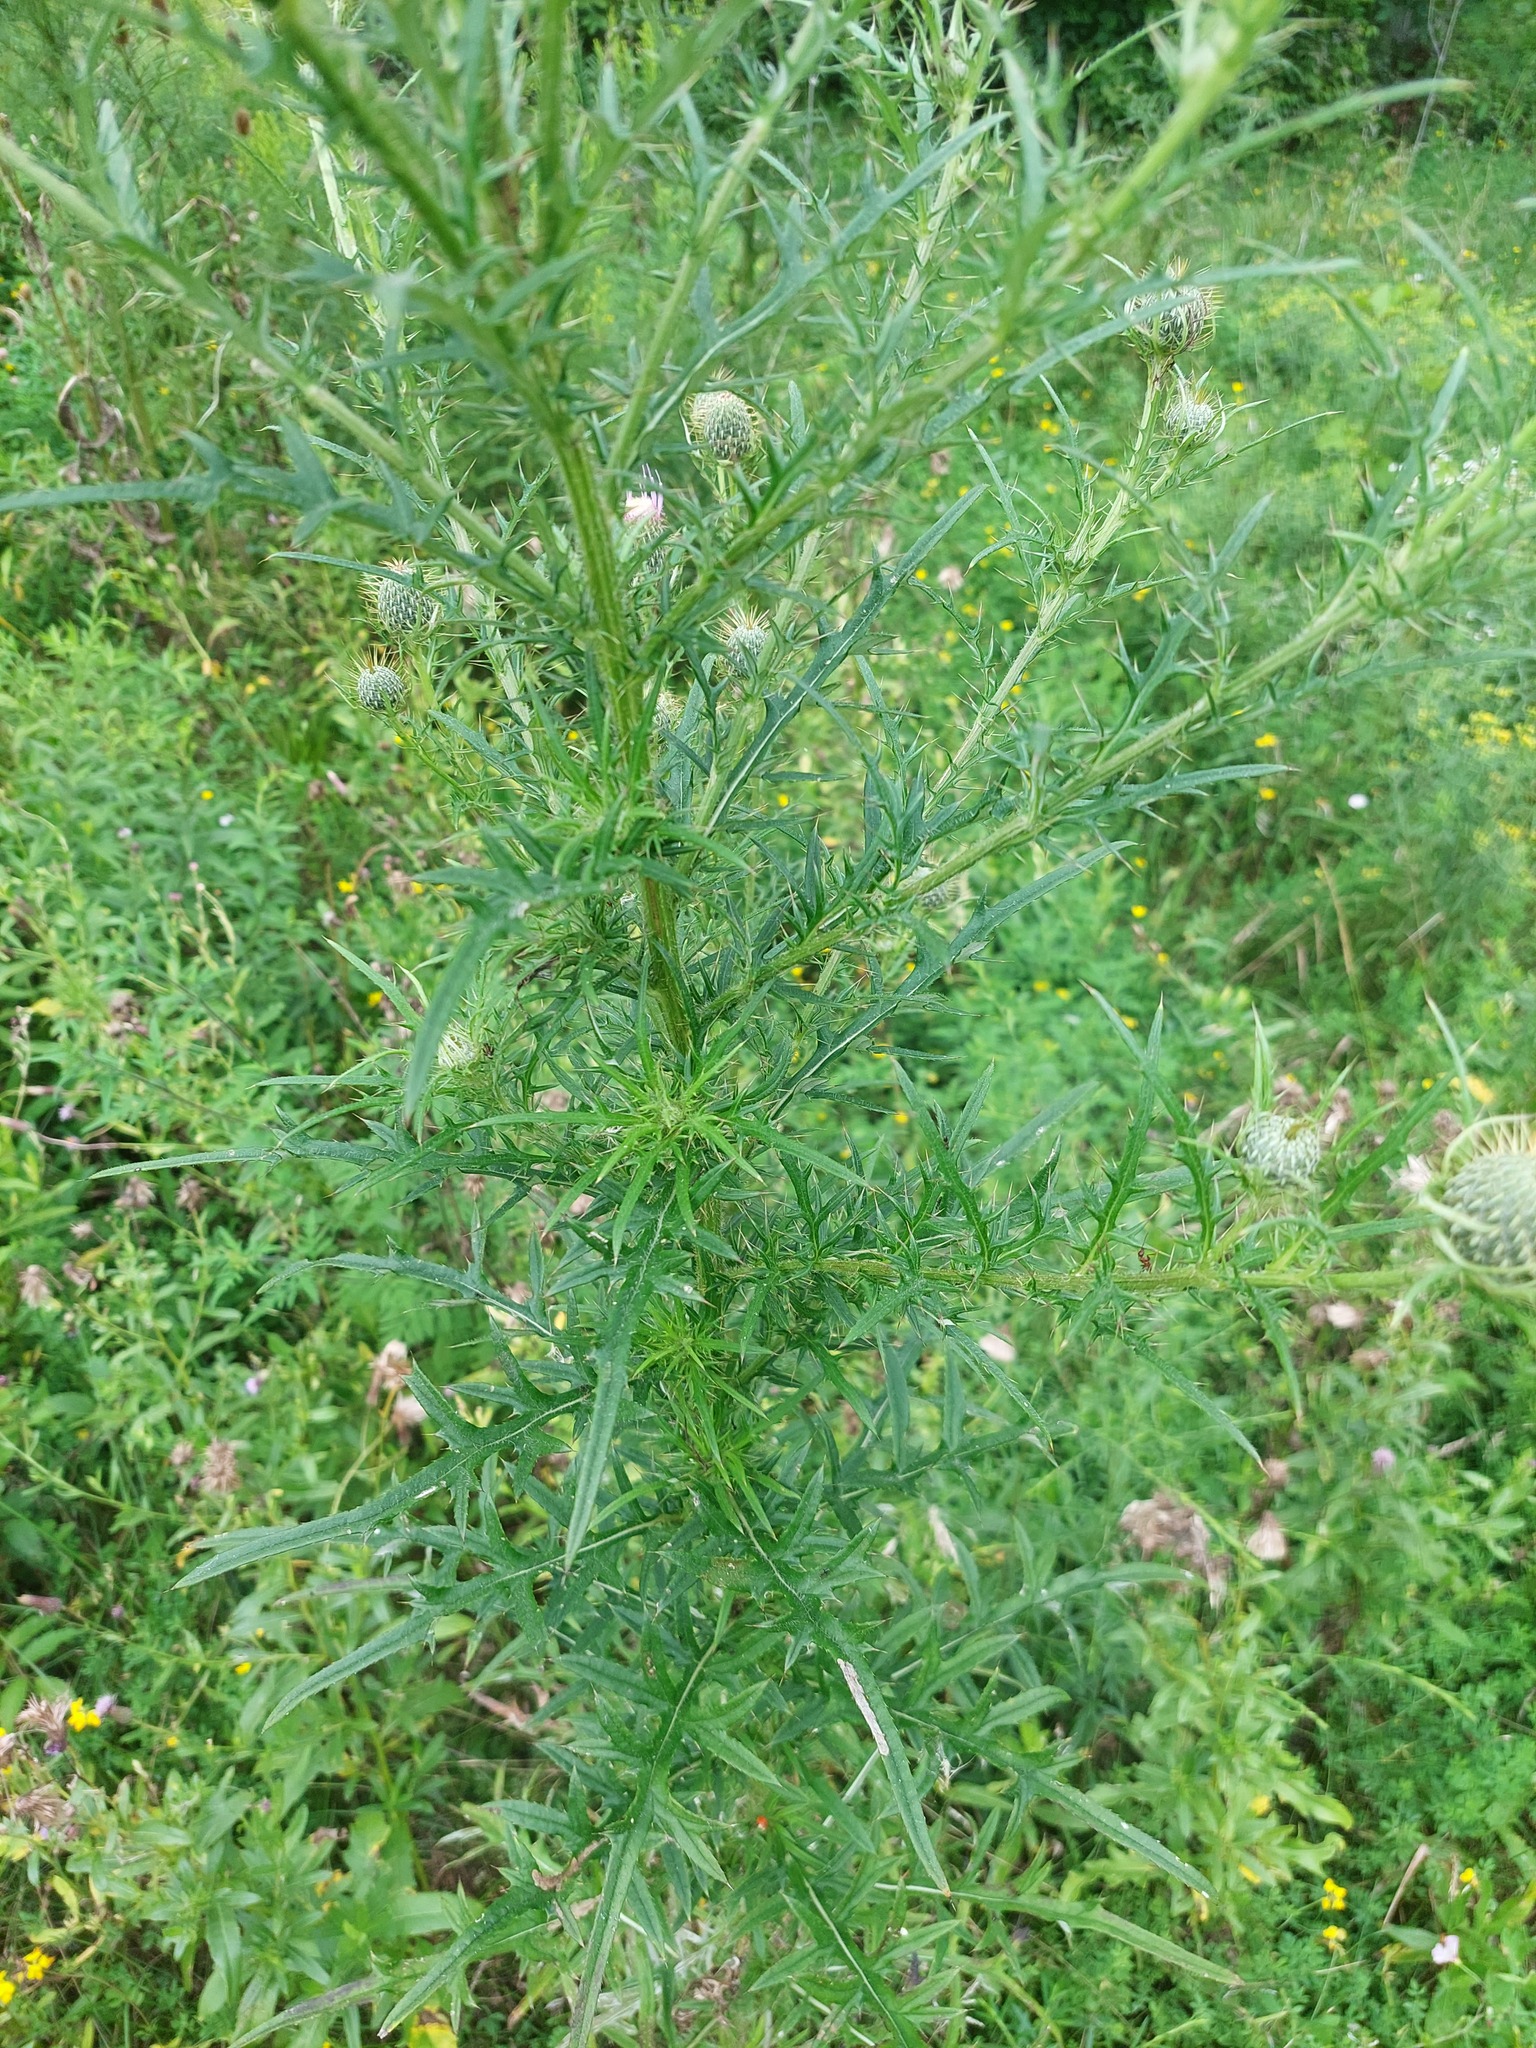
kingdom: Plantae
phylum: Tracheophyta
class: Magnoliopsida
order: Asterales
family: Asteraceae
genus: Cirsium
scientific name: Cirsium discolor
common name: Field thistle
